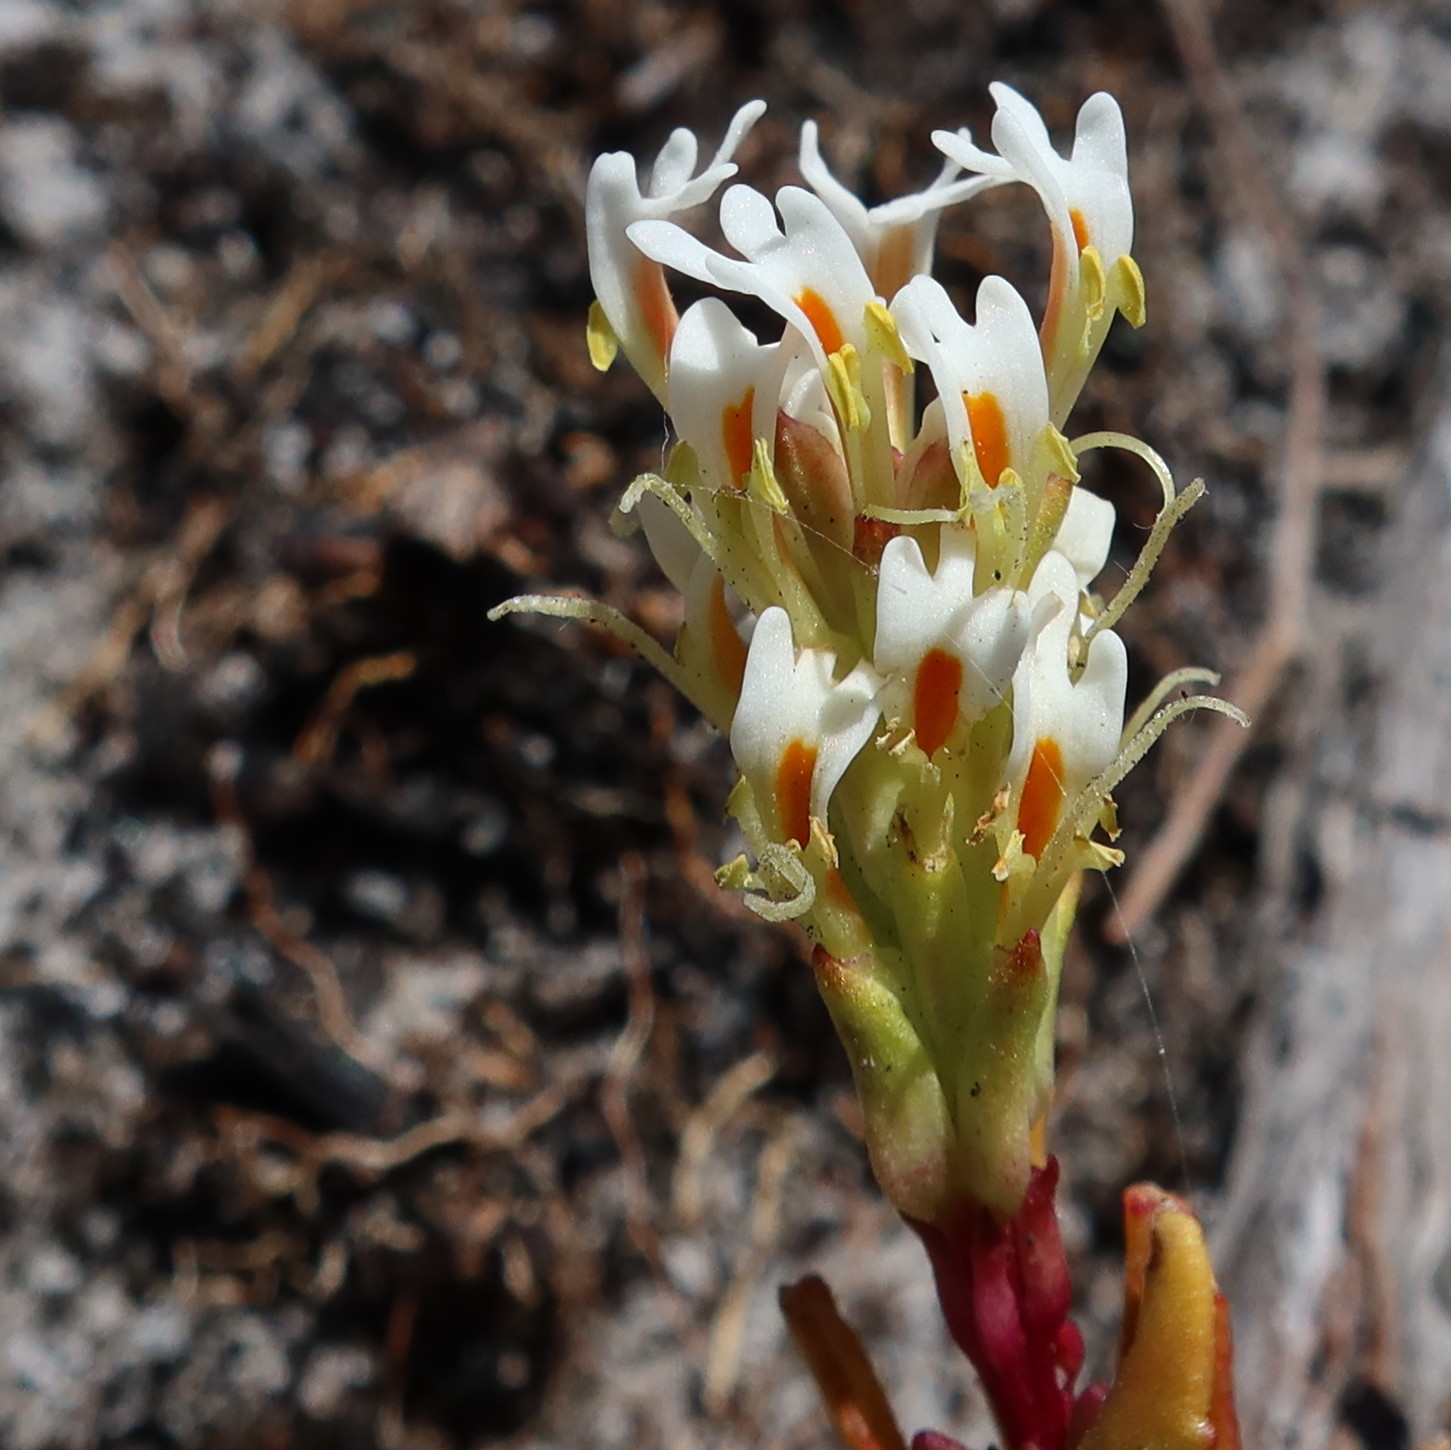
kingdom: Plantae
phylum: Tracheophyta
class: Magnoliopsida
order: Lamiales
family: Scrophulariaceae
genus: Hebenstretia
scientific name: Hebenstretia repens
